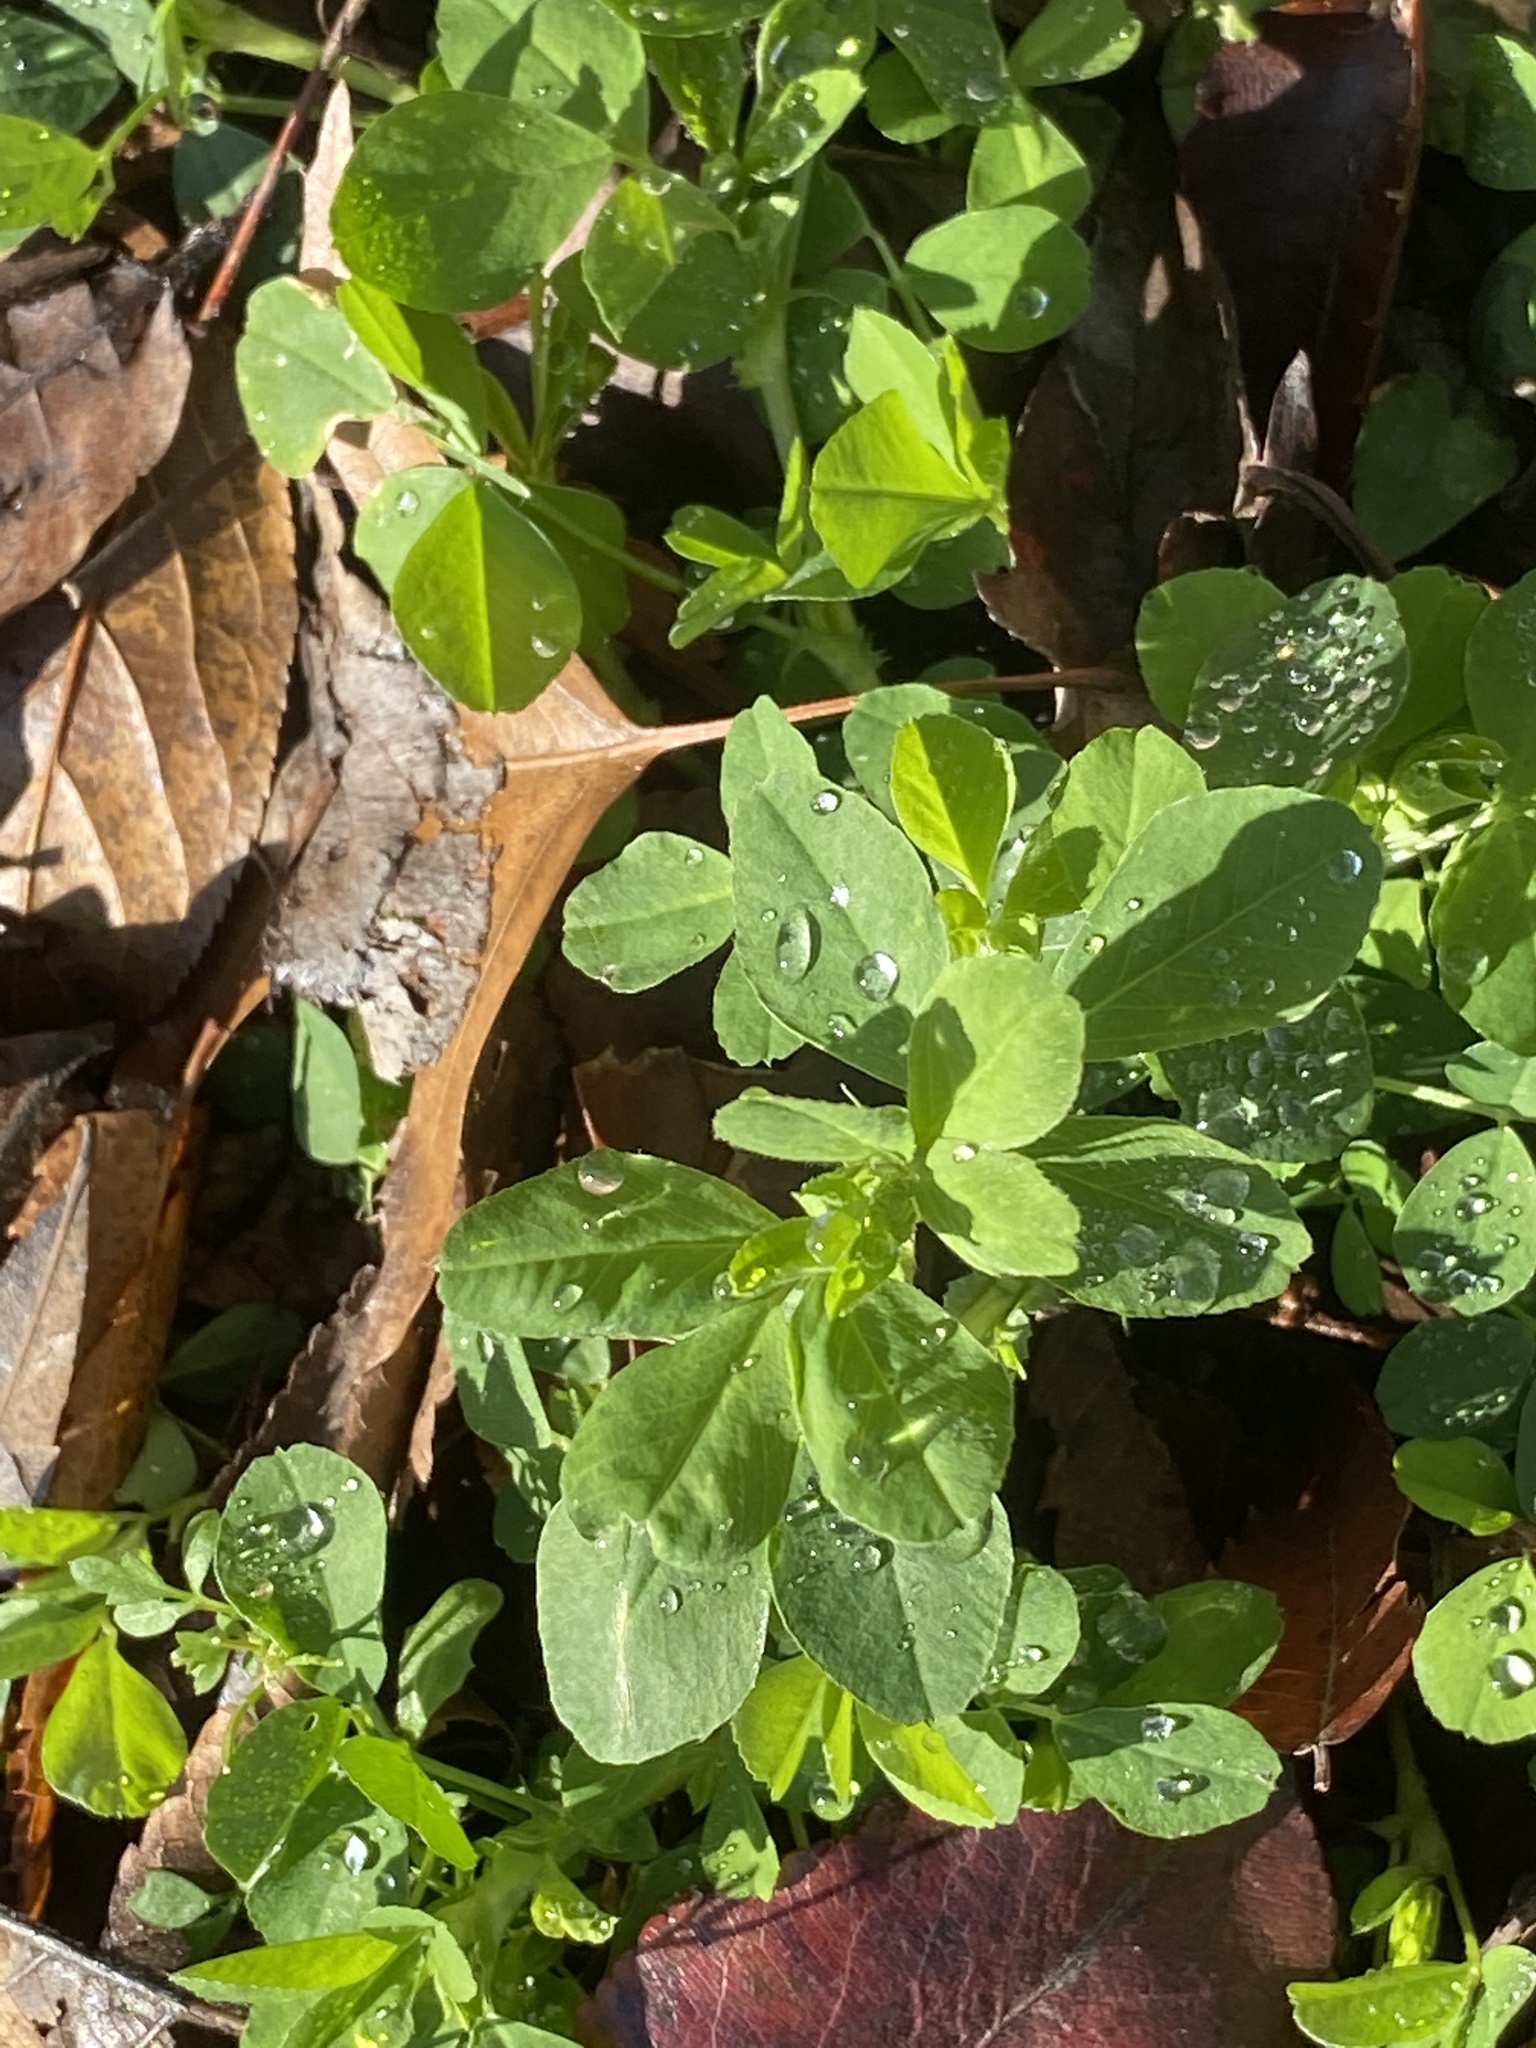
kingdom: Plantae
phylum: Tracheophyta
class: Magnoliopsida
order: Fabales
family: Fabaceae
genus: Medicago
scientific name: Medicago lupulina
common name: Black medick
